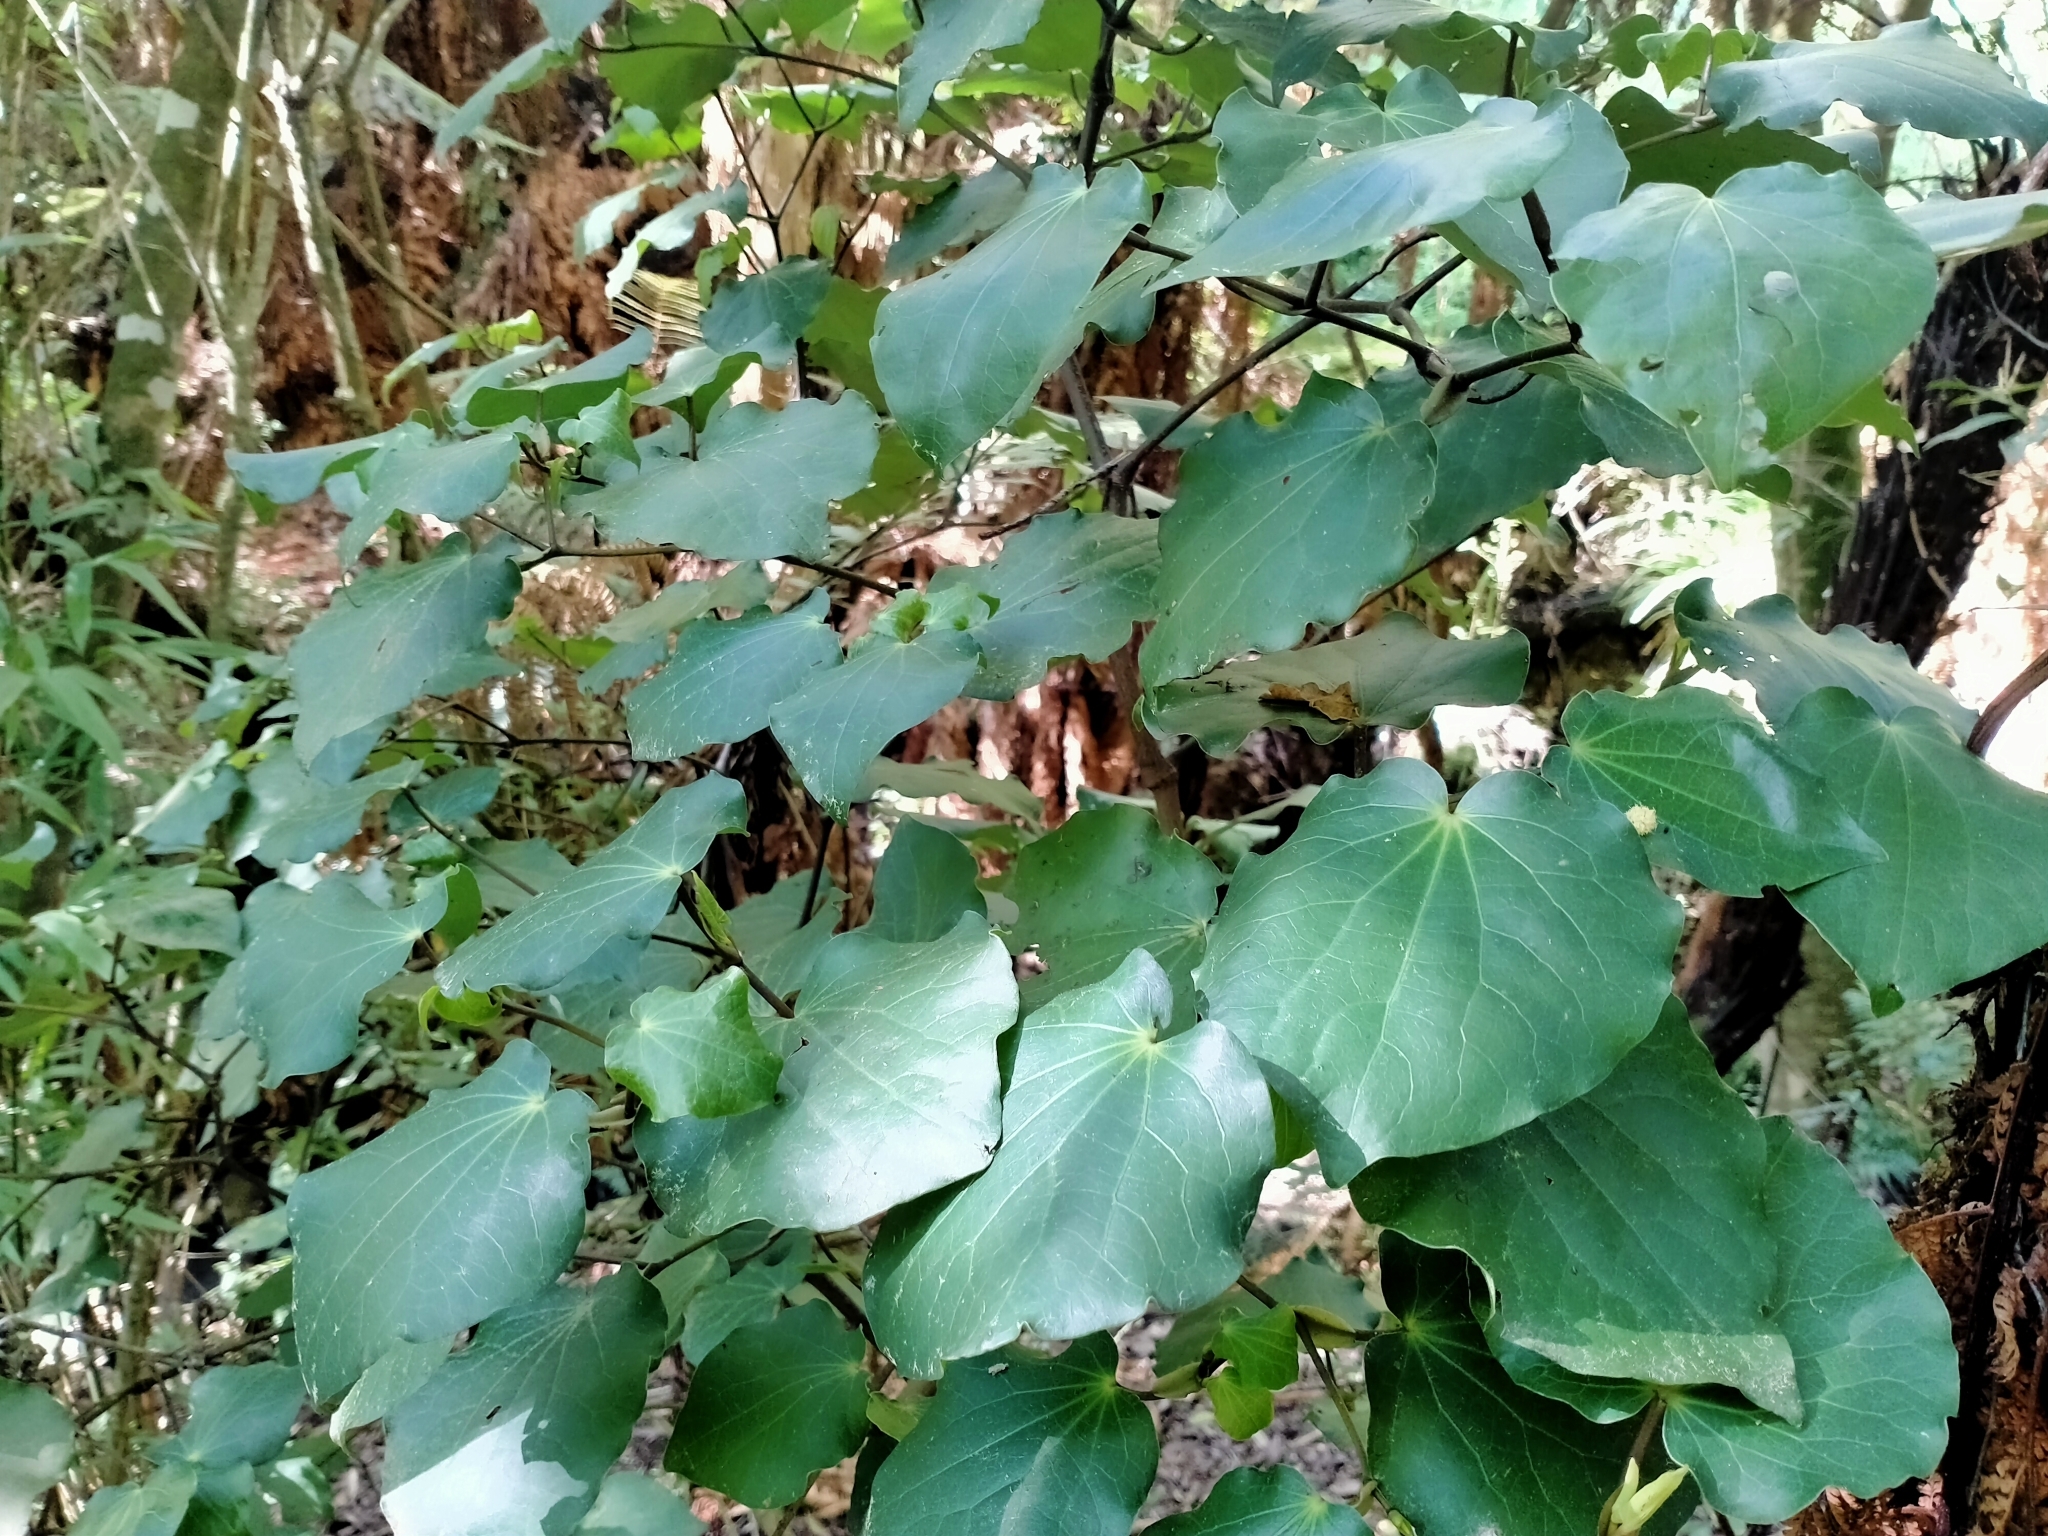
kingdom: Plantae
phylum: Tracheophyta
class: Magnoliopsida
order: Piperales
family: Piperaceae
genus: Macropiper
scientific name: Macropiper excelsum
